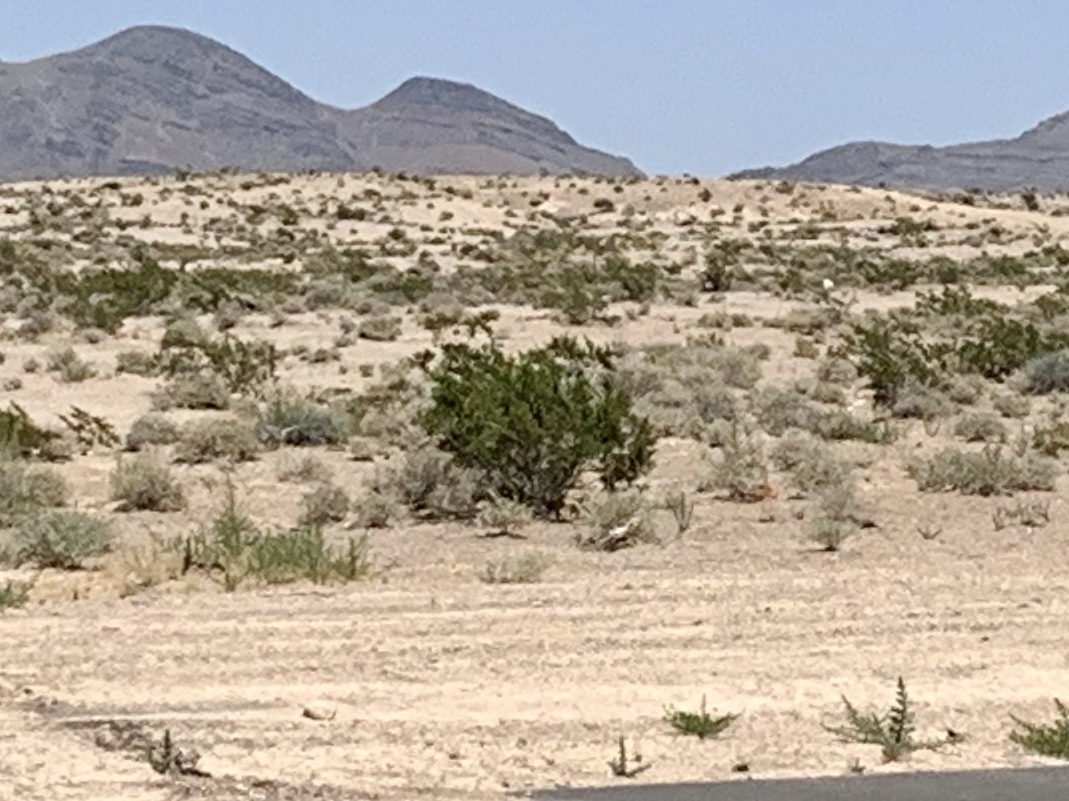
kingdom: Plantae
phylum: Tracheophyta
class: Magnoliopsida
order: Zygophyllales
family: Zygophyllaceae
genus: Larrea
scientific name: Larrea tridentata
